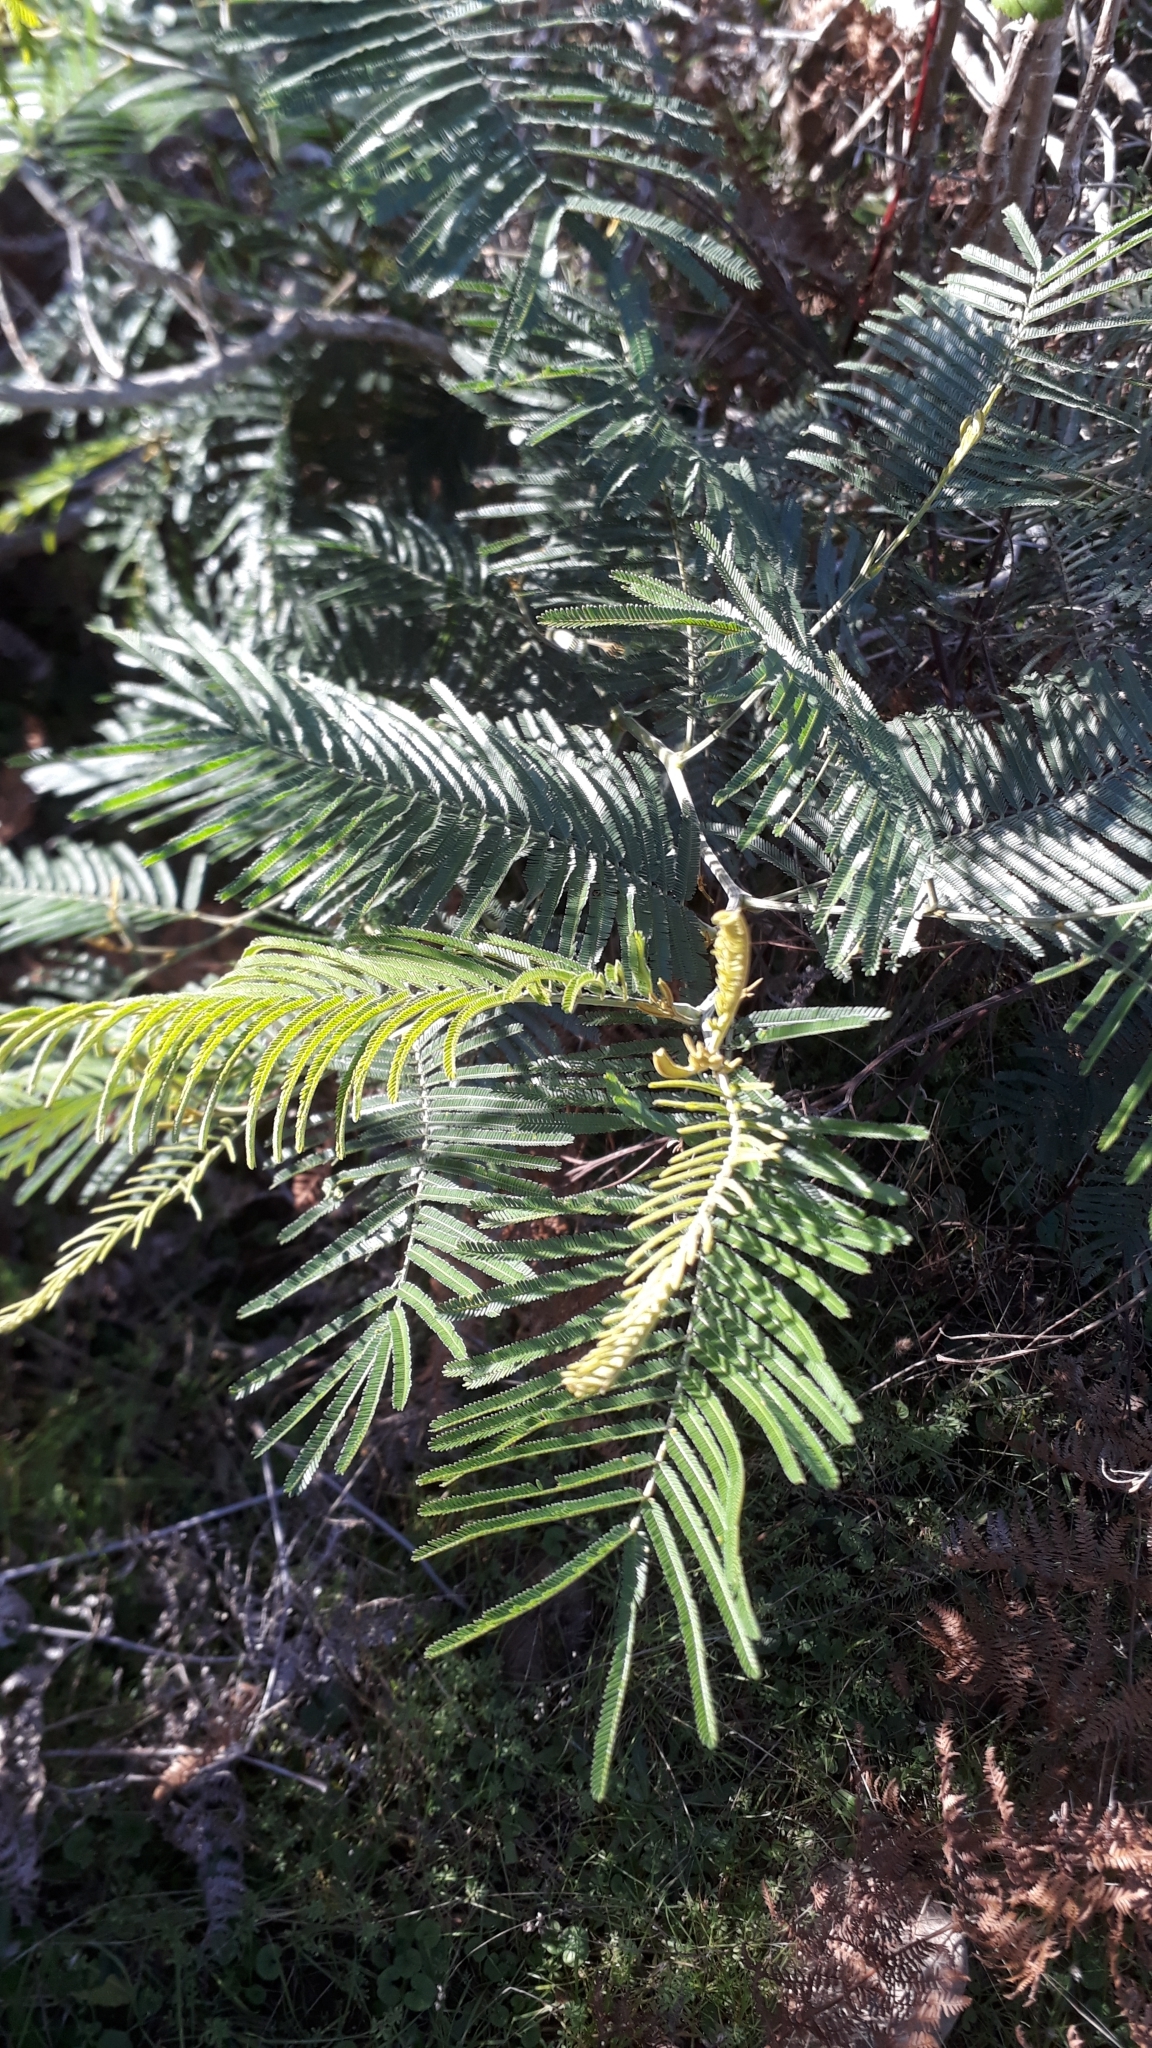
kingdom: Plantae
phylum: Tracheophyta
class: Magnoliopsida
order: Fabales
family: Fabaceae
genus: Acacia
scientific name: Acacia mearnsii
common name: Black wattle
